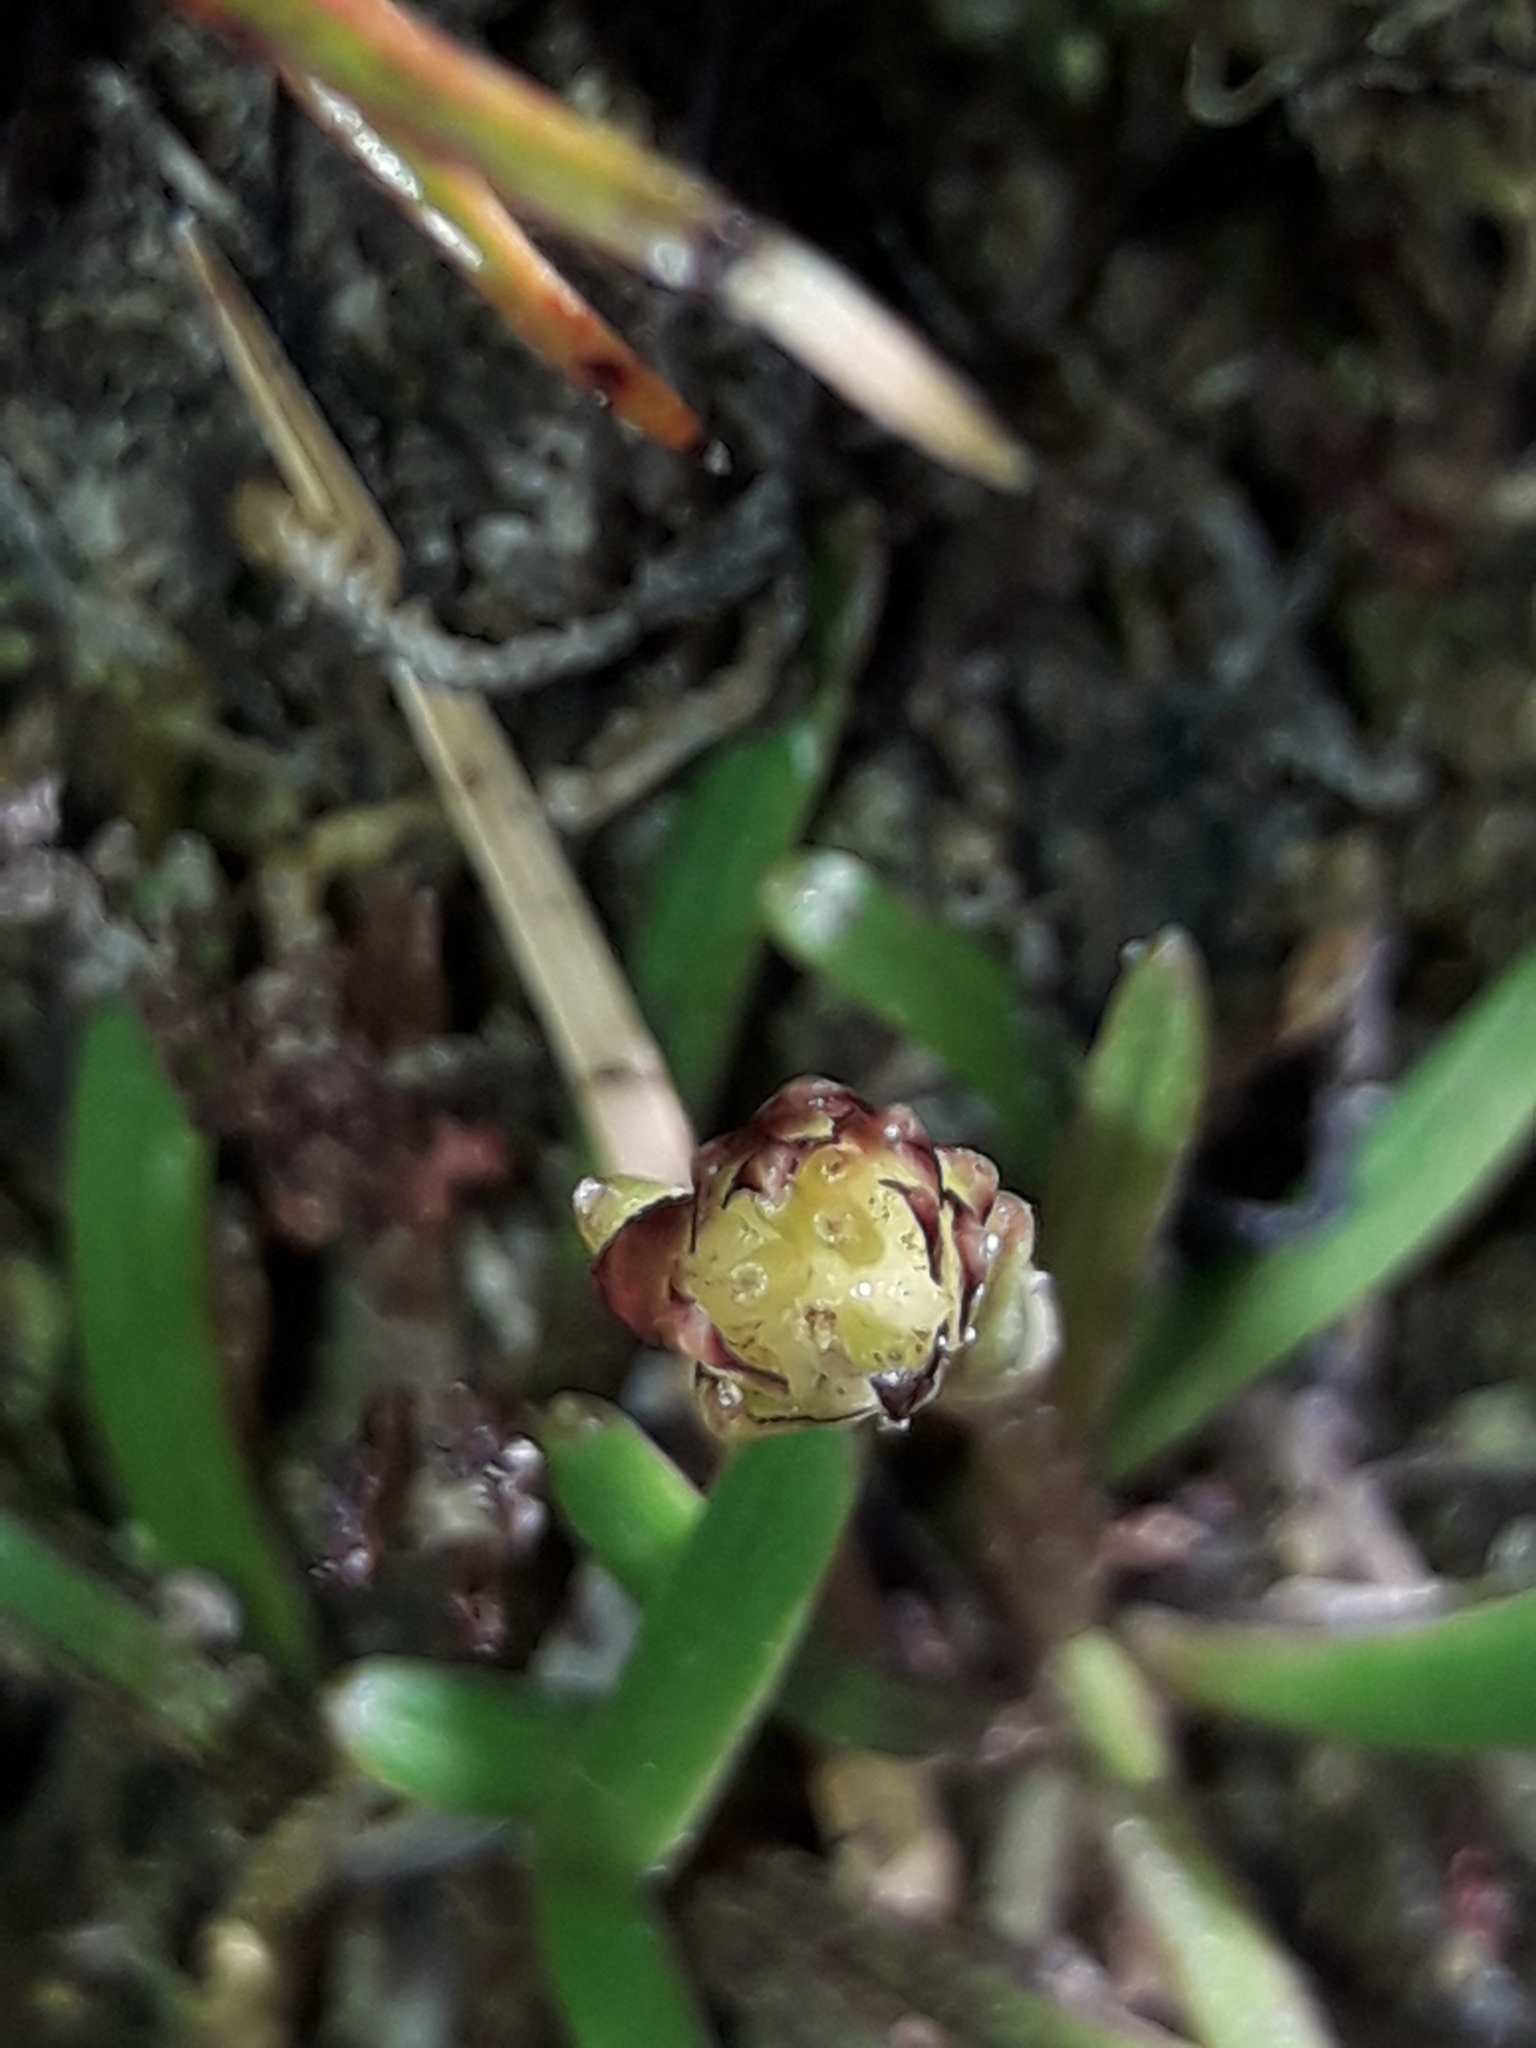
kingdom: Plantae
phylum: Tracheophyta
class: Magnoliopsida
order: Asterales
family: Asteraceae
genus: Abrotanella
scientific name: Abrotanella linearis
